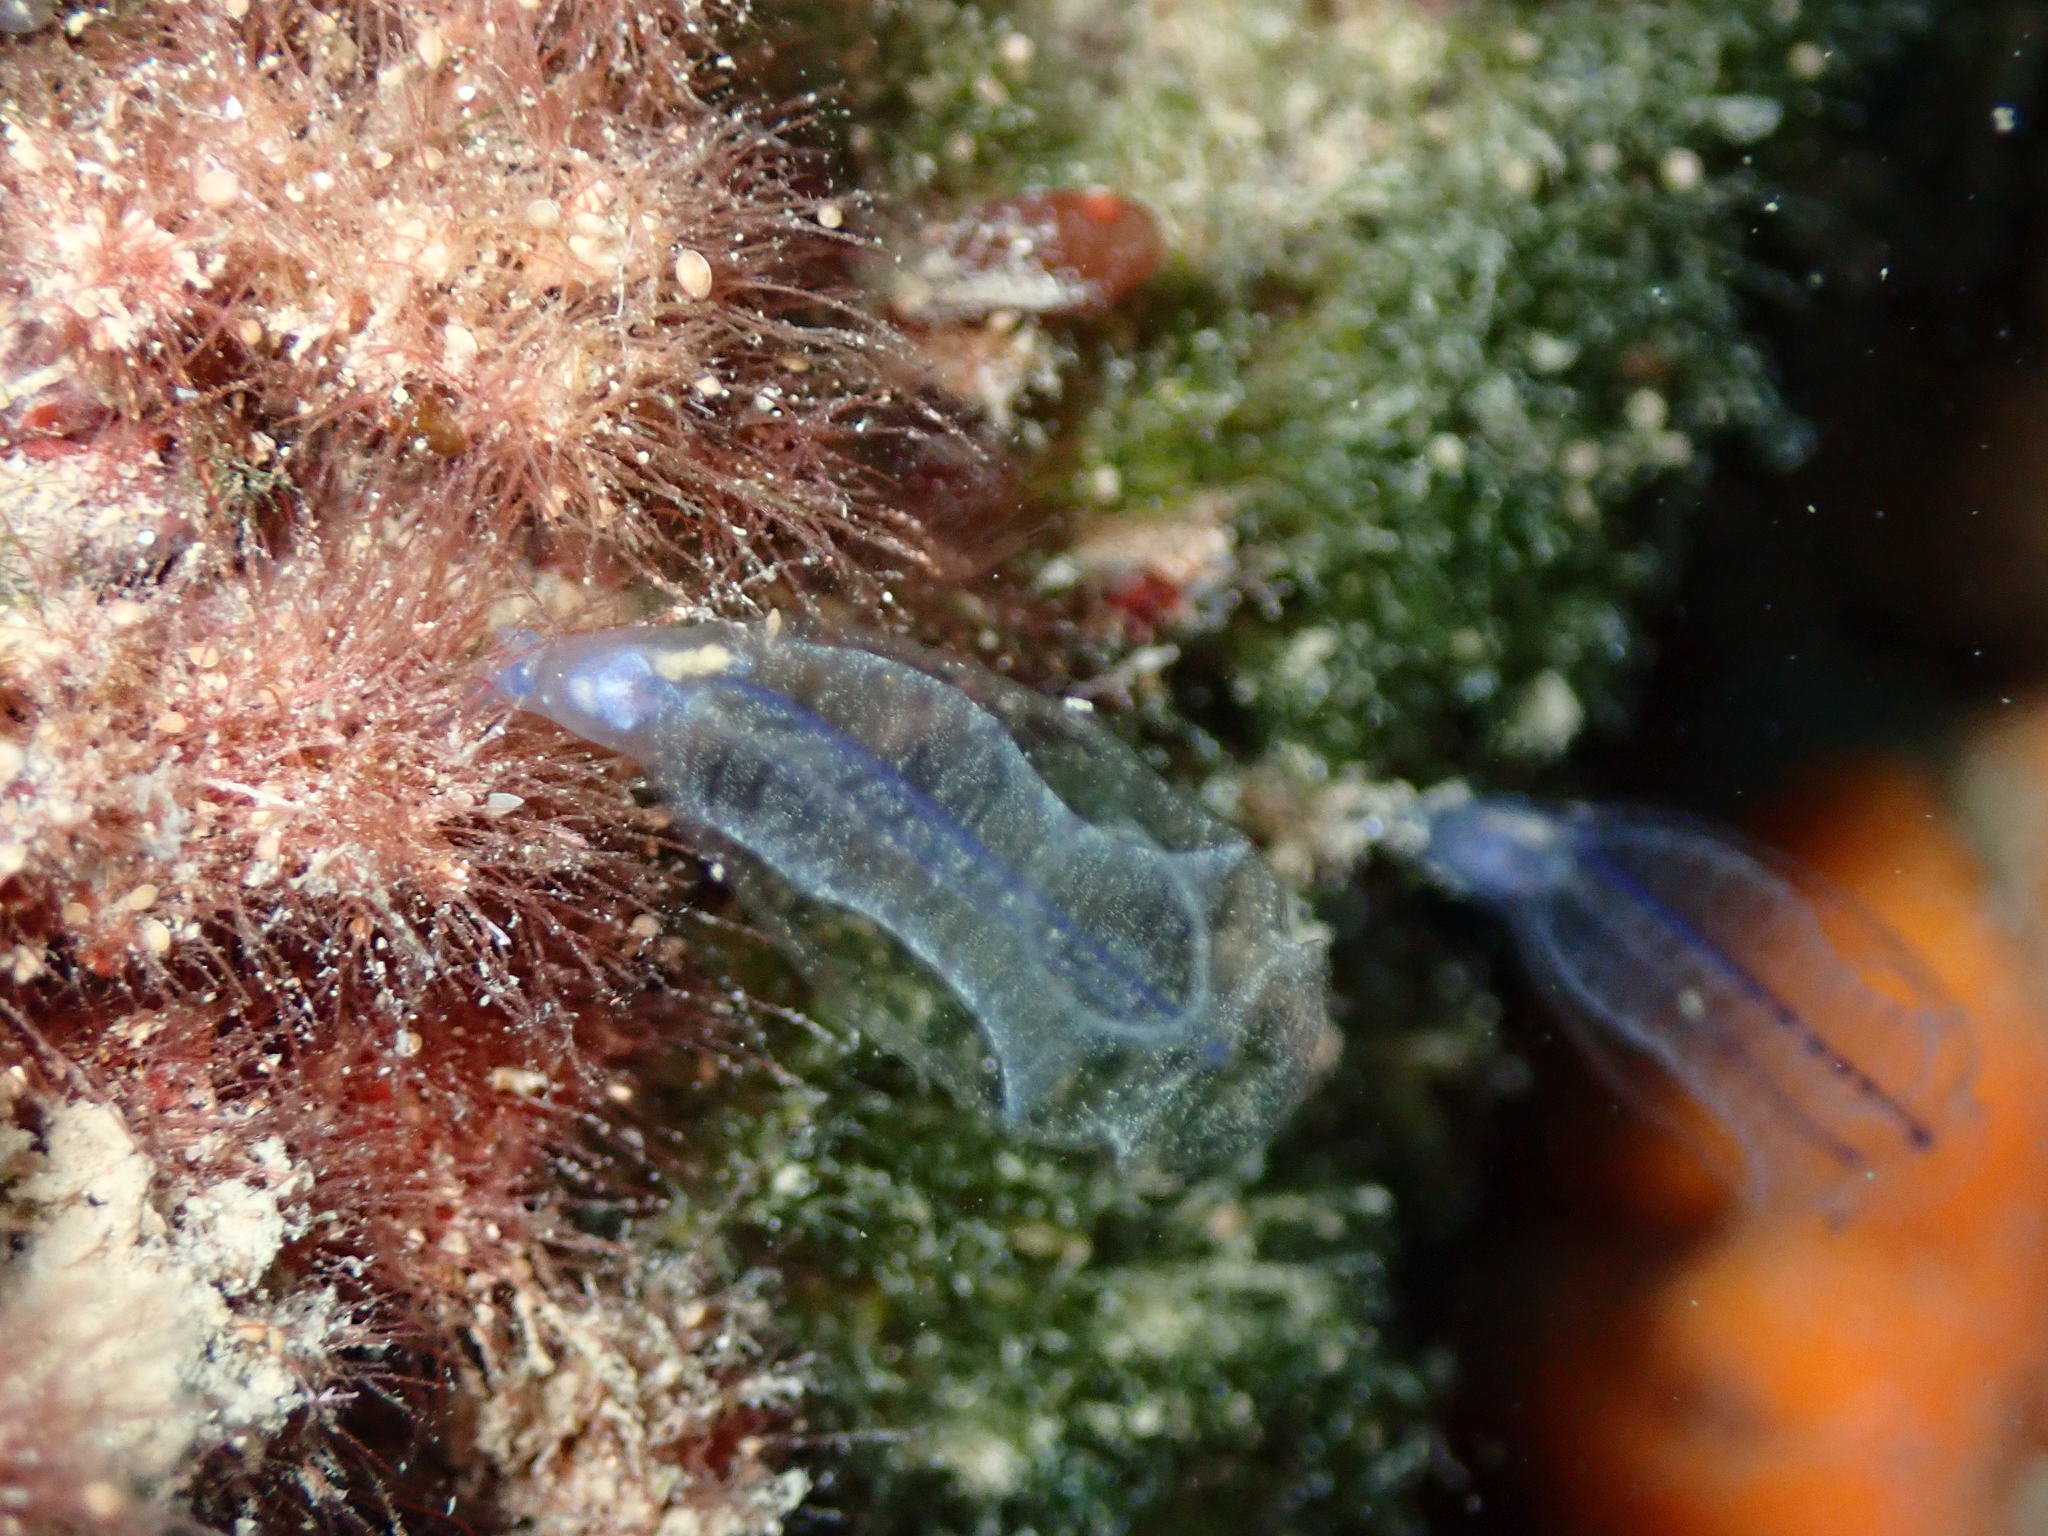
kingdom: Animalia
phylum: Chordata
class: Ascidiacea
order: Aplousobranchia
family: Clavelinidae
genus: Clavelina
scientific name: Clavelina dellavallei
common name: Bluestriped light bulb tunicate
